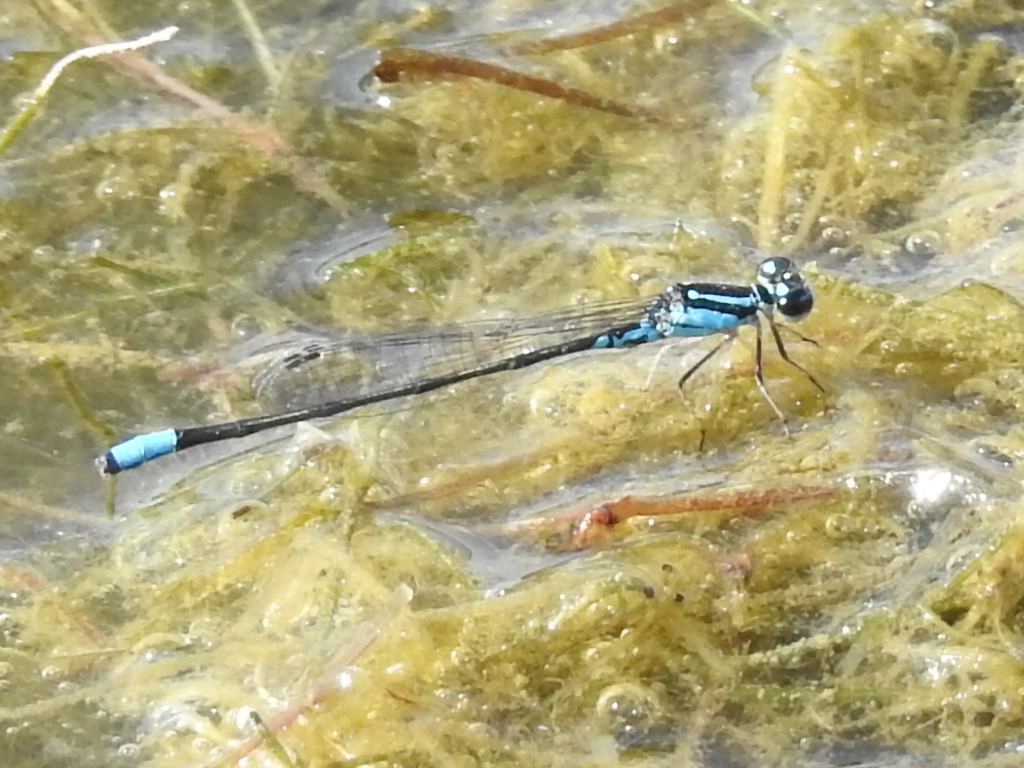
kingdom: Animalia
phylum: Arthropoda
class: Insecta
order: Odonata
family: Coenagrionidae
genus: Enallagma
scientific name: Enallagma geminatum
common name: Skimming bluet
